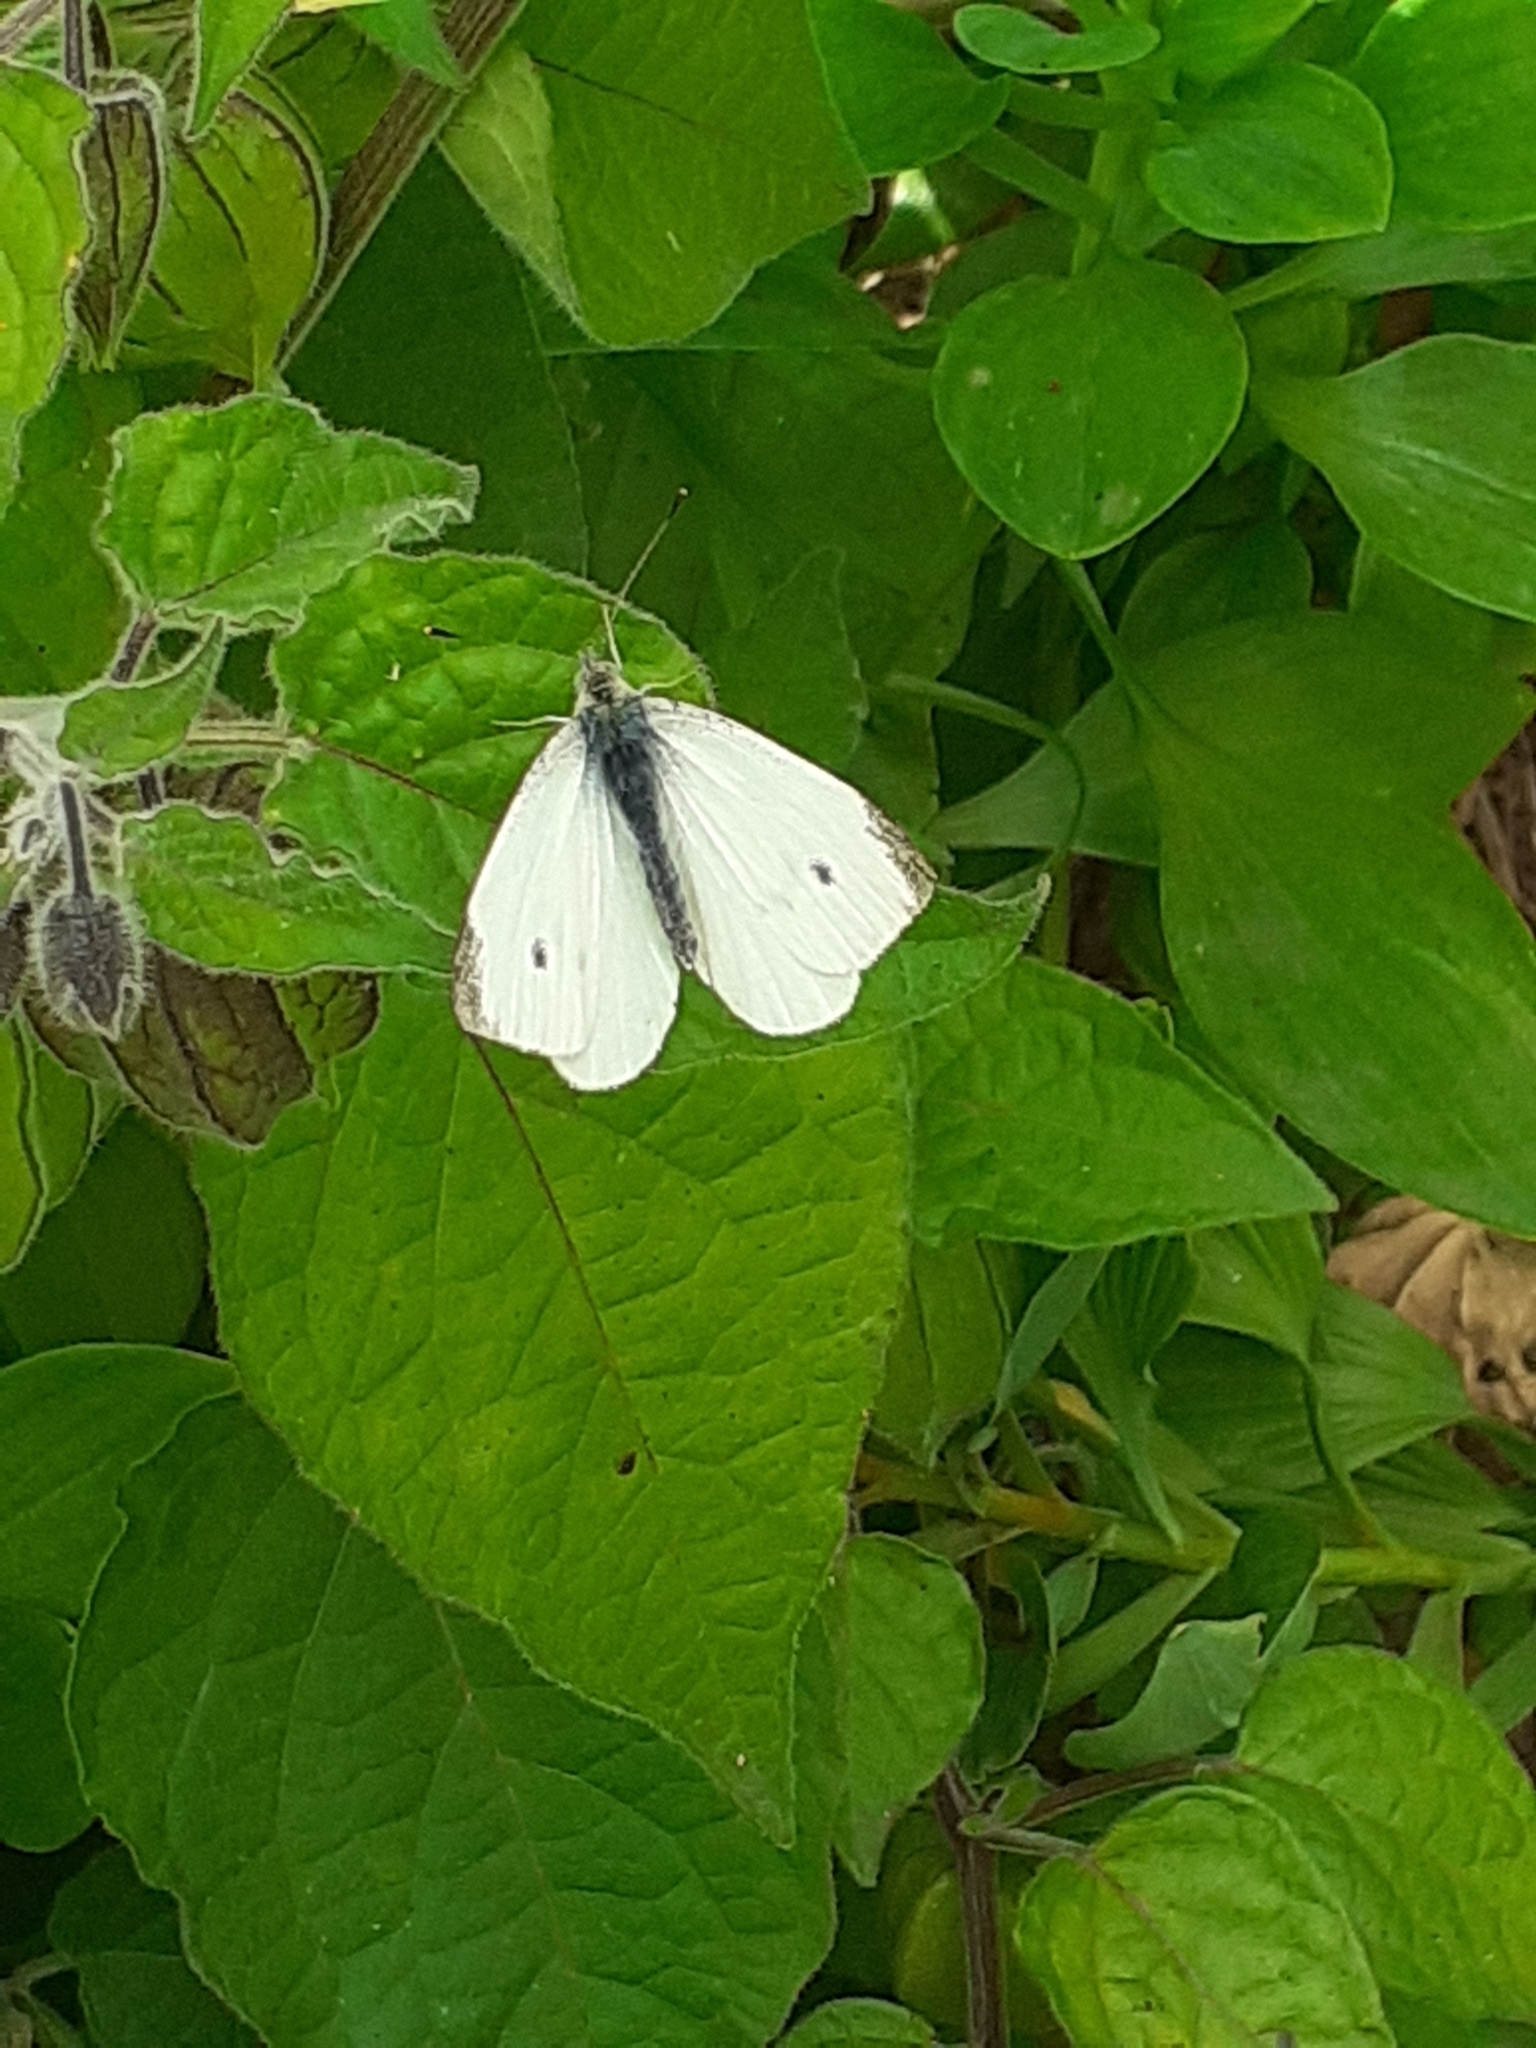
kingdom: Animalia
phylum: Arthropoda
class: Insecta
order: Lepidoptera
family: Pieridae
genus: Pieris
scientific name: Pieris rapae
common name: Small white
